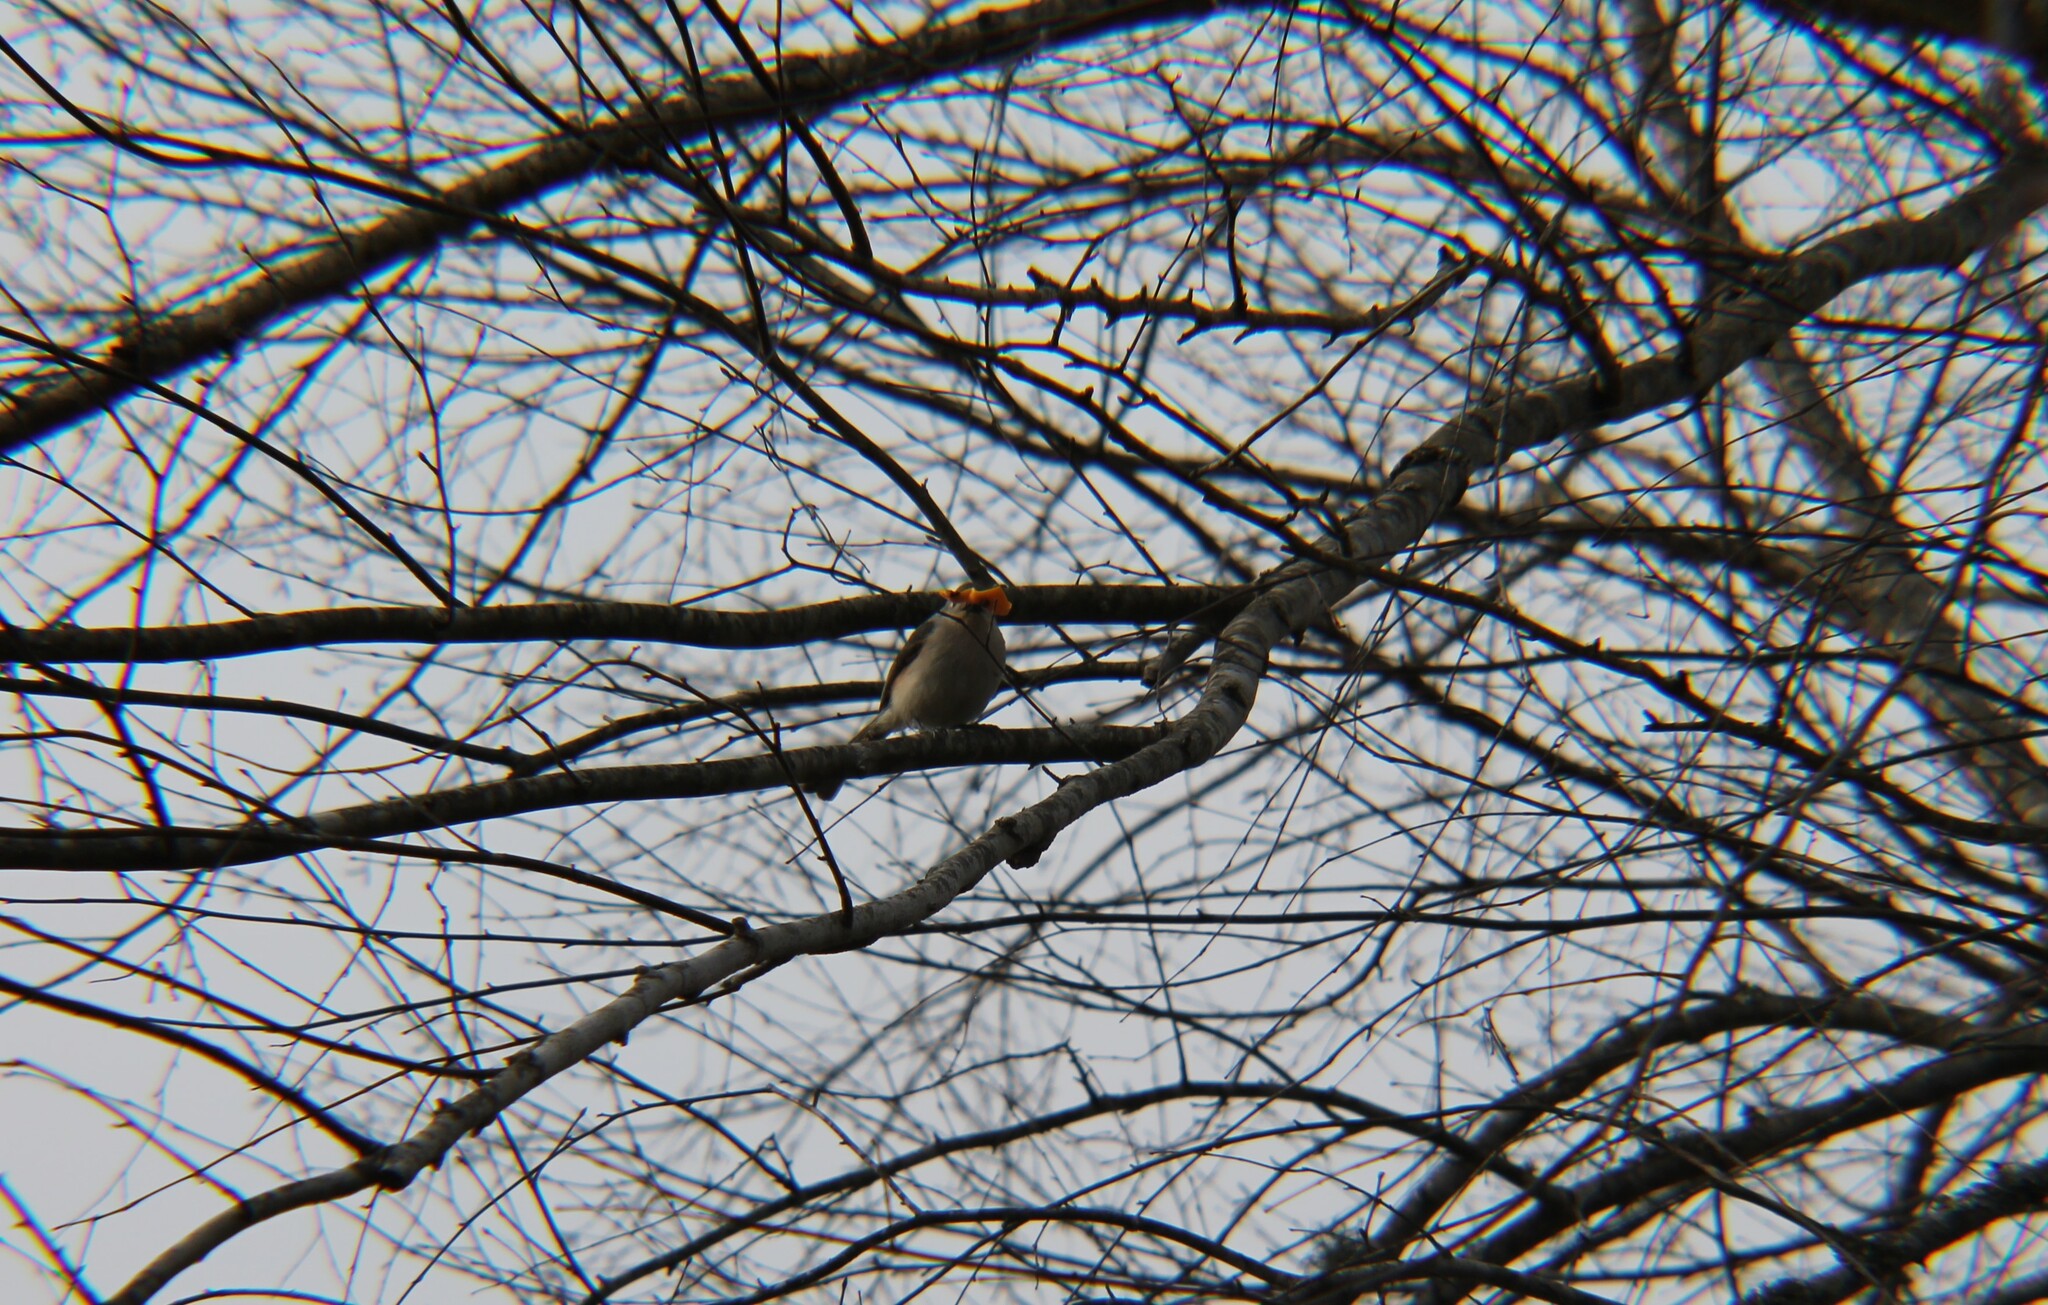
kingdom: Animalia
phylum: Chordata
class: Aves
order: Passeriformes
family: Paridae
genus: Baeolophus
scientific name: Baeolophus bicolor
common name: Tufted titmouse
